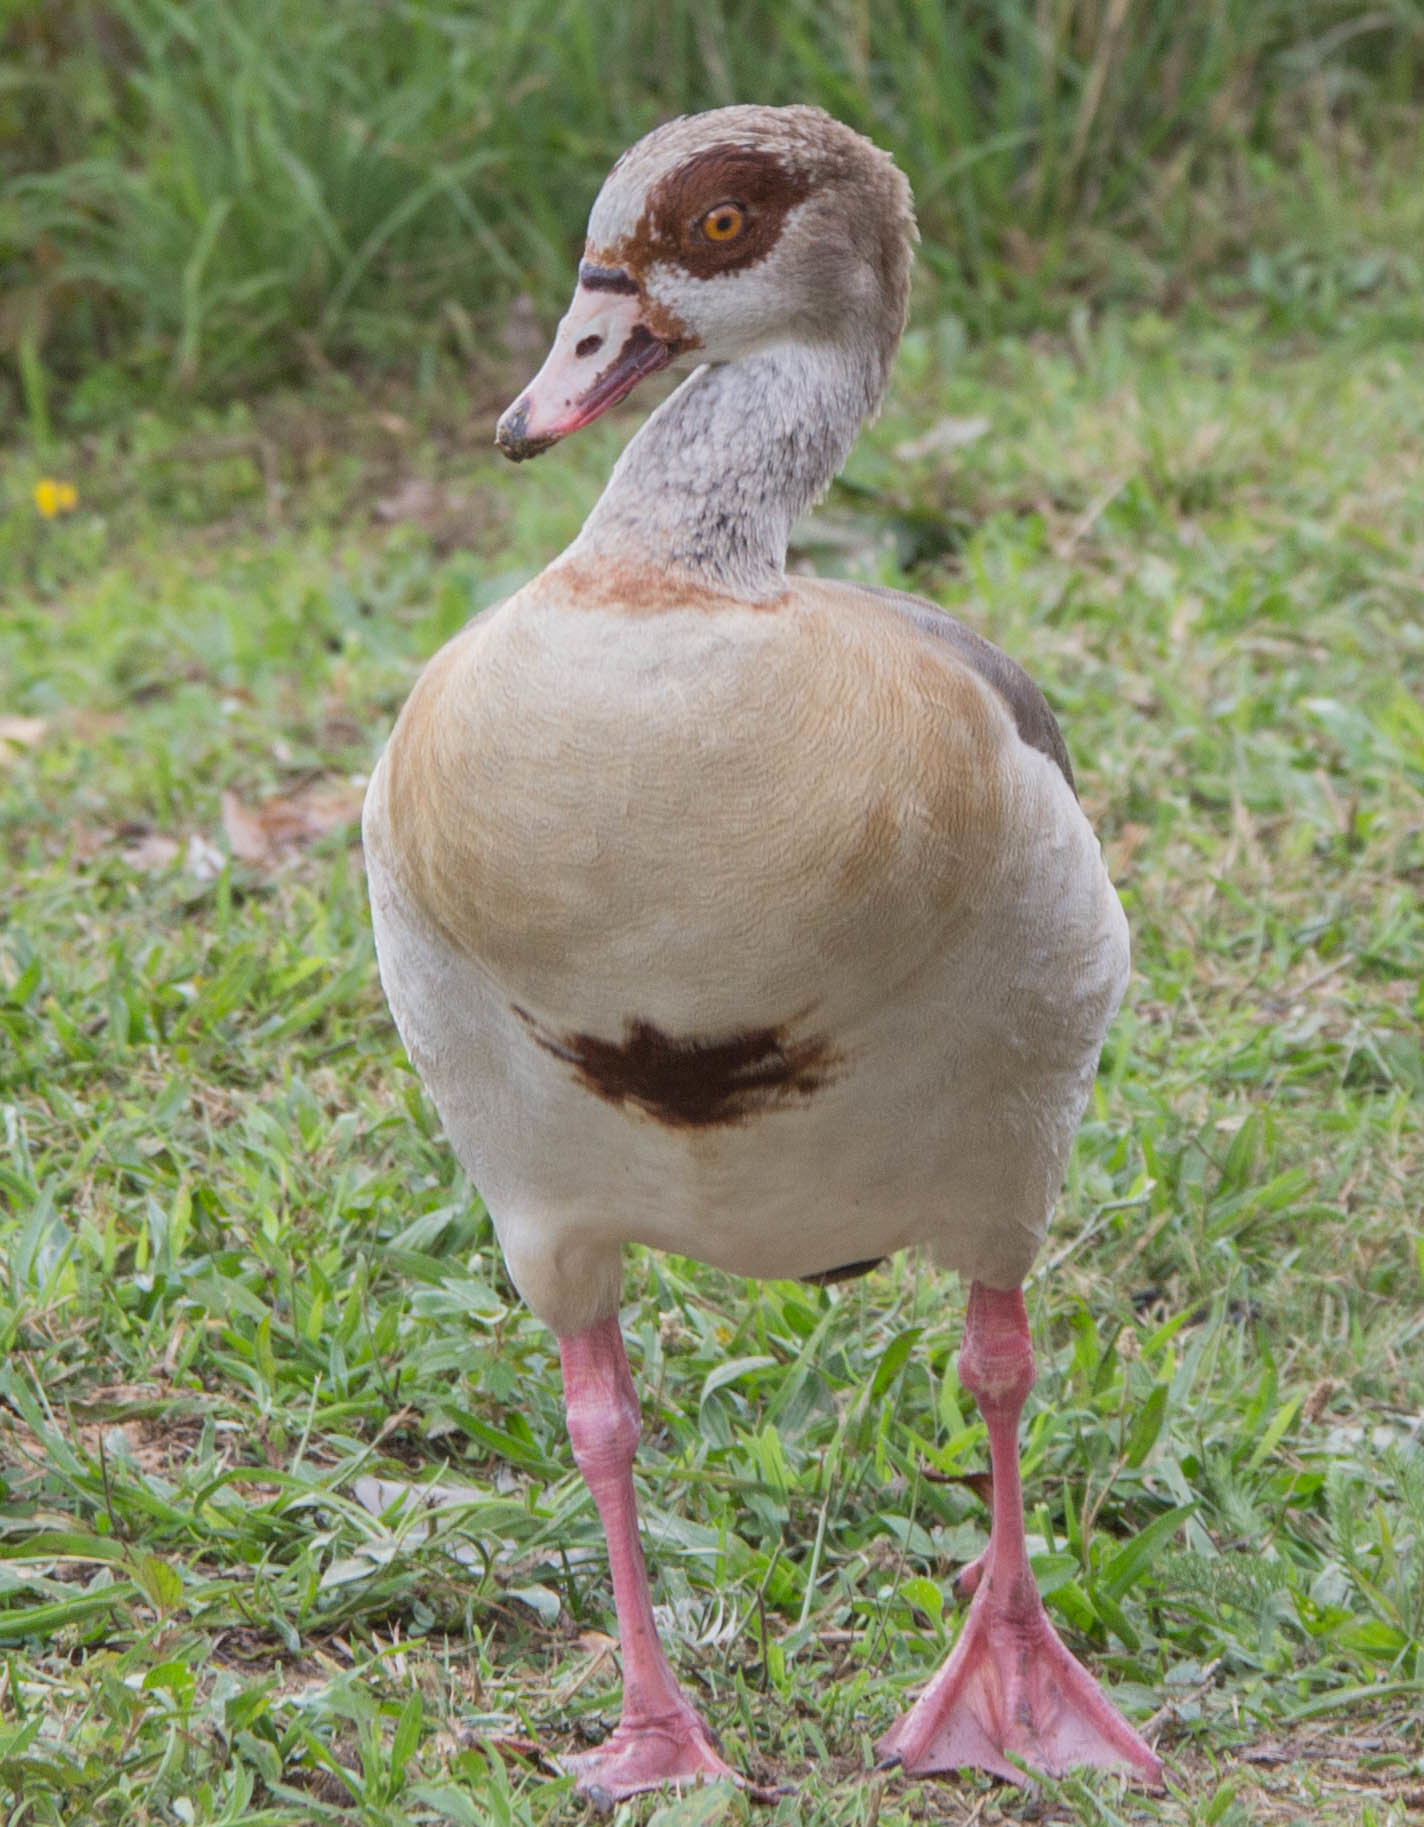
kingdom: Animalia
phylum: Chordata
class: Aves
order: Anseriformes
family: Anatidae
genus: Alopochen
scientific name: Alopochen aegyptiaca
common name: Egyptian goose
